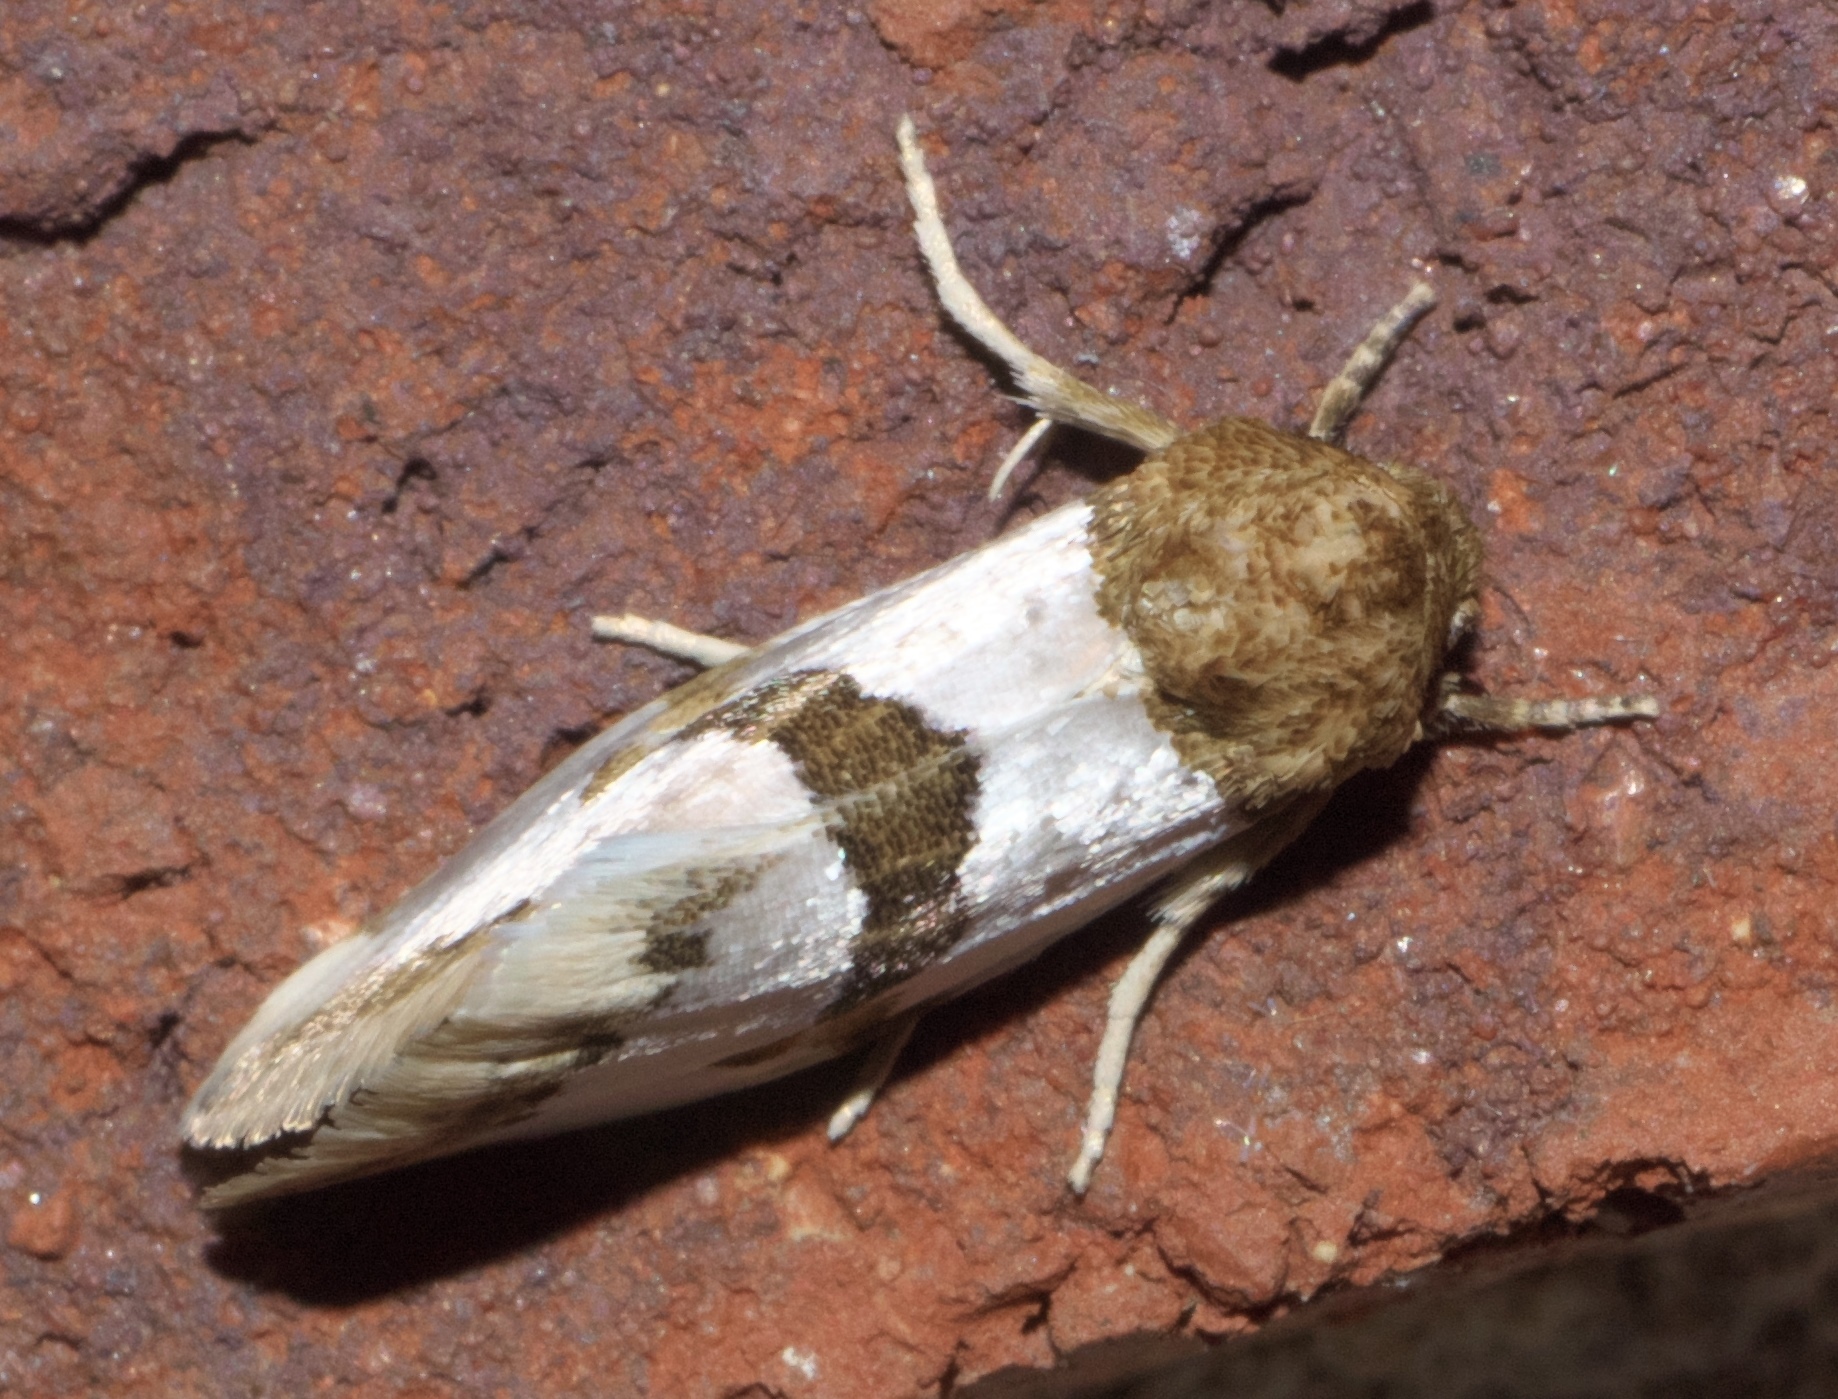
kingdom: Animalia
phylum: Arthropoda
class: Insecta
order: Lepidoptera
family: Noctuidae
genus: Schinia
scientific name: Schinia chrysellus
